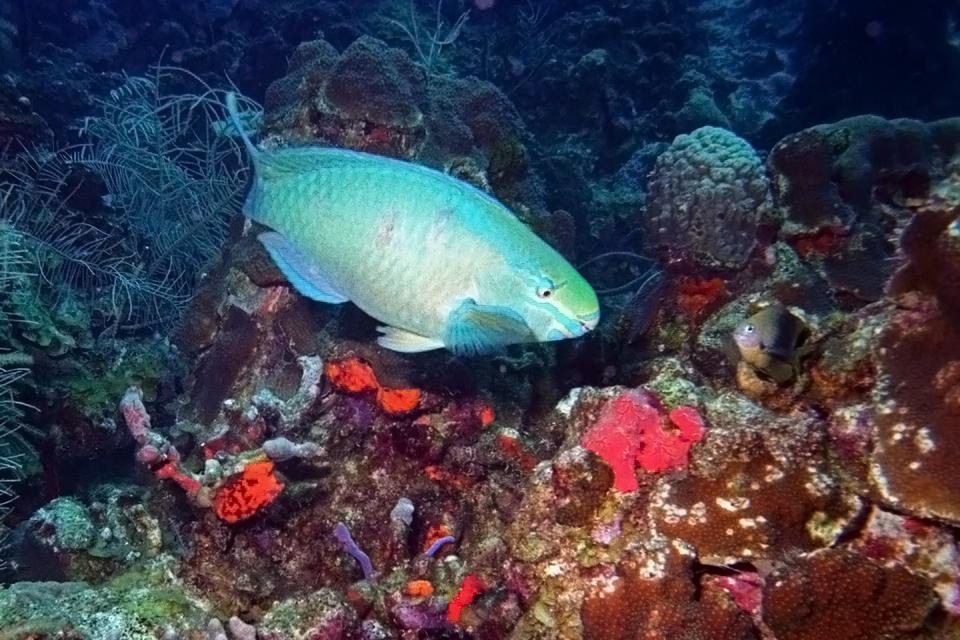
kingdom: Animalia
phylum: Chordata
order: Perciformes
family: Scaridae
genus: Scarus
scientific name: Scarus vetula
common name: Queen parrotfish
